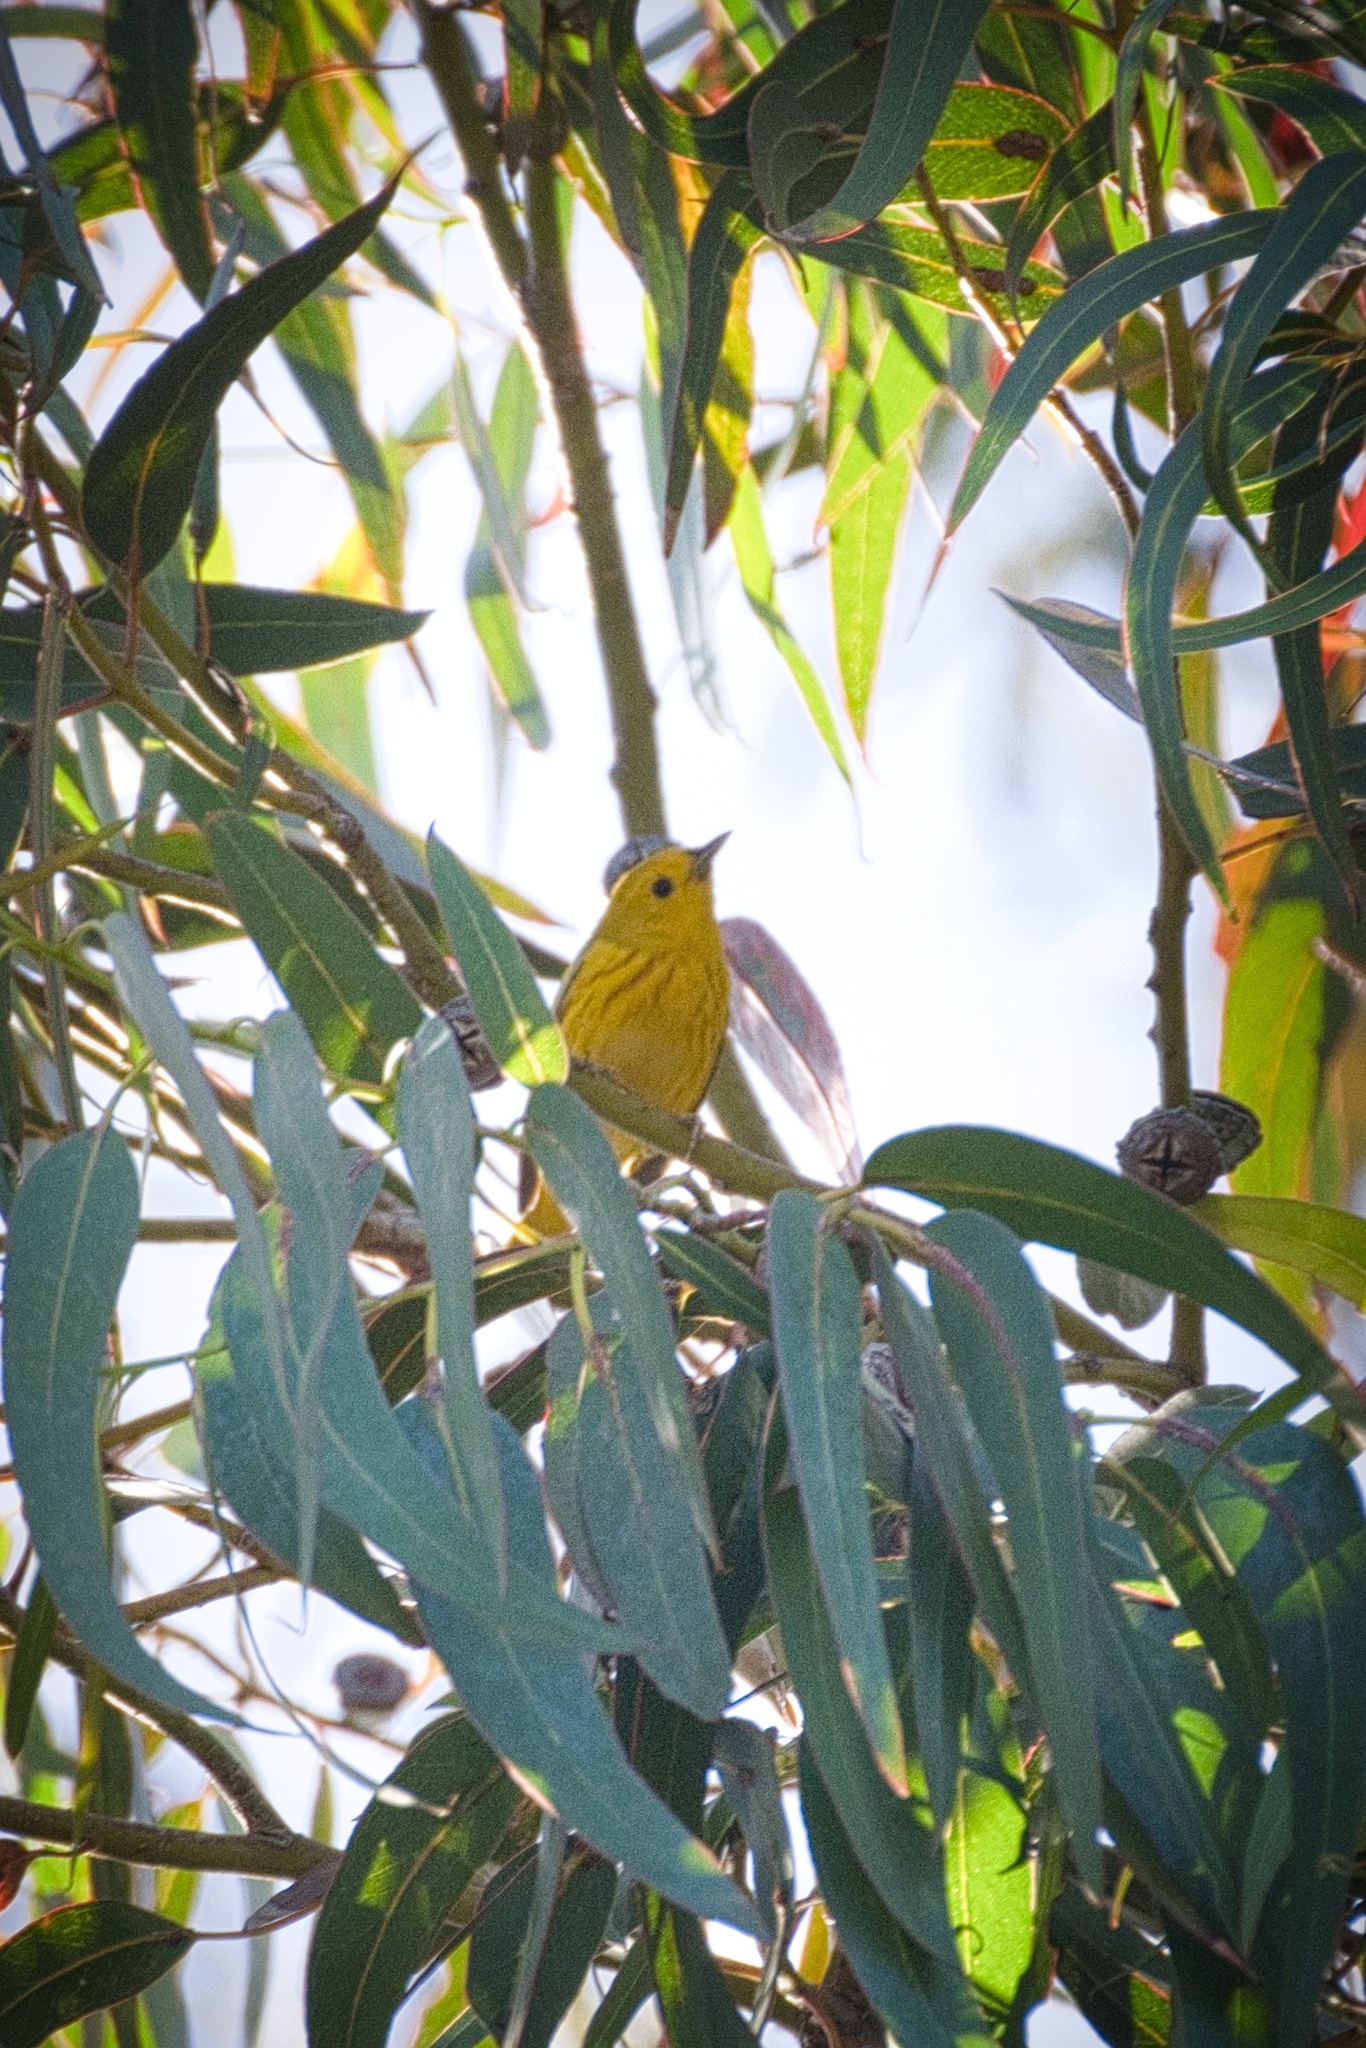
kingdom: Animalia
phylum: Chordata
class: Aves
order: Passeriformes
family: Parulidae
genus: Setophaga
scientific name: Setophaga petechia
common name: Yellow warbler
